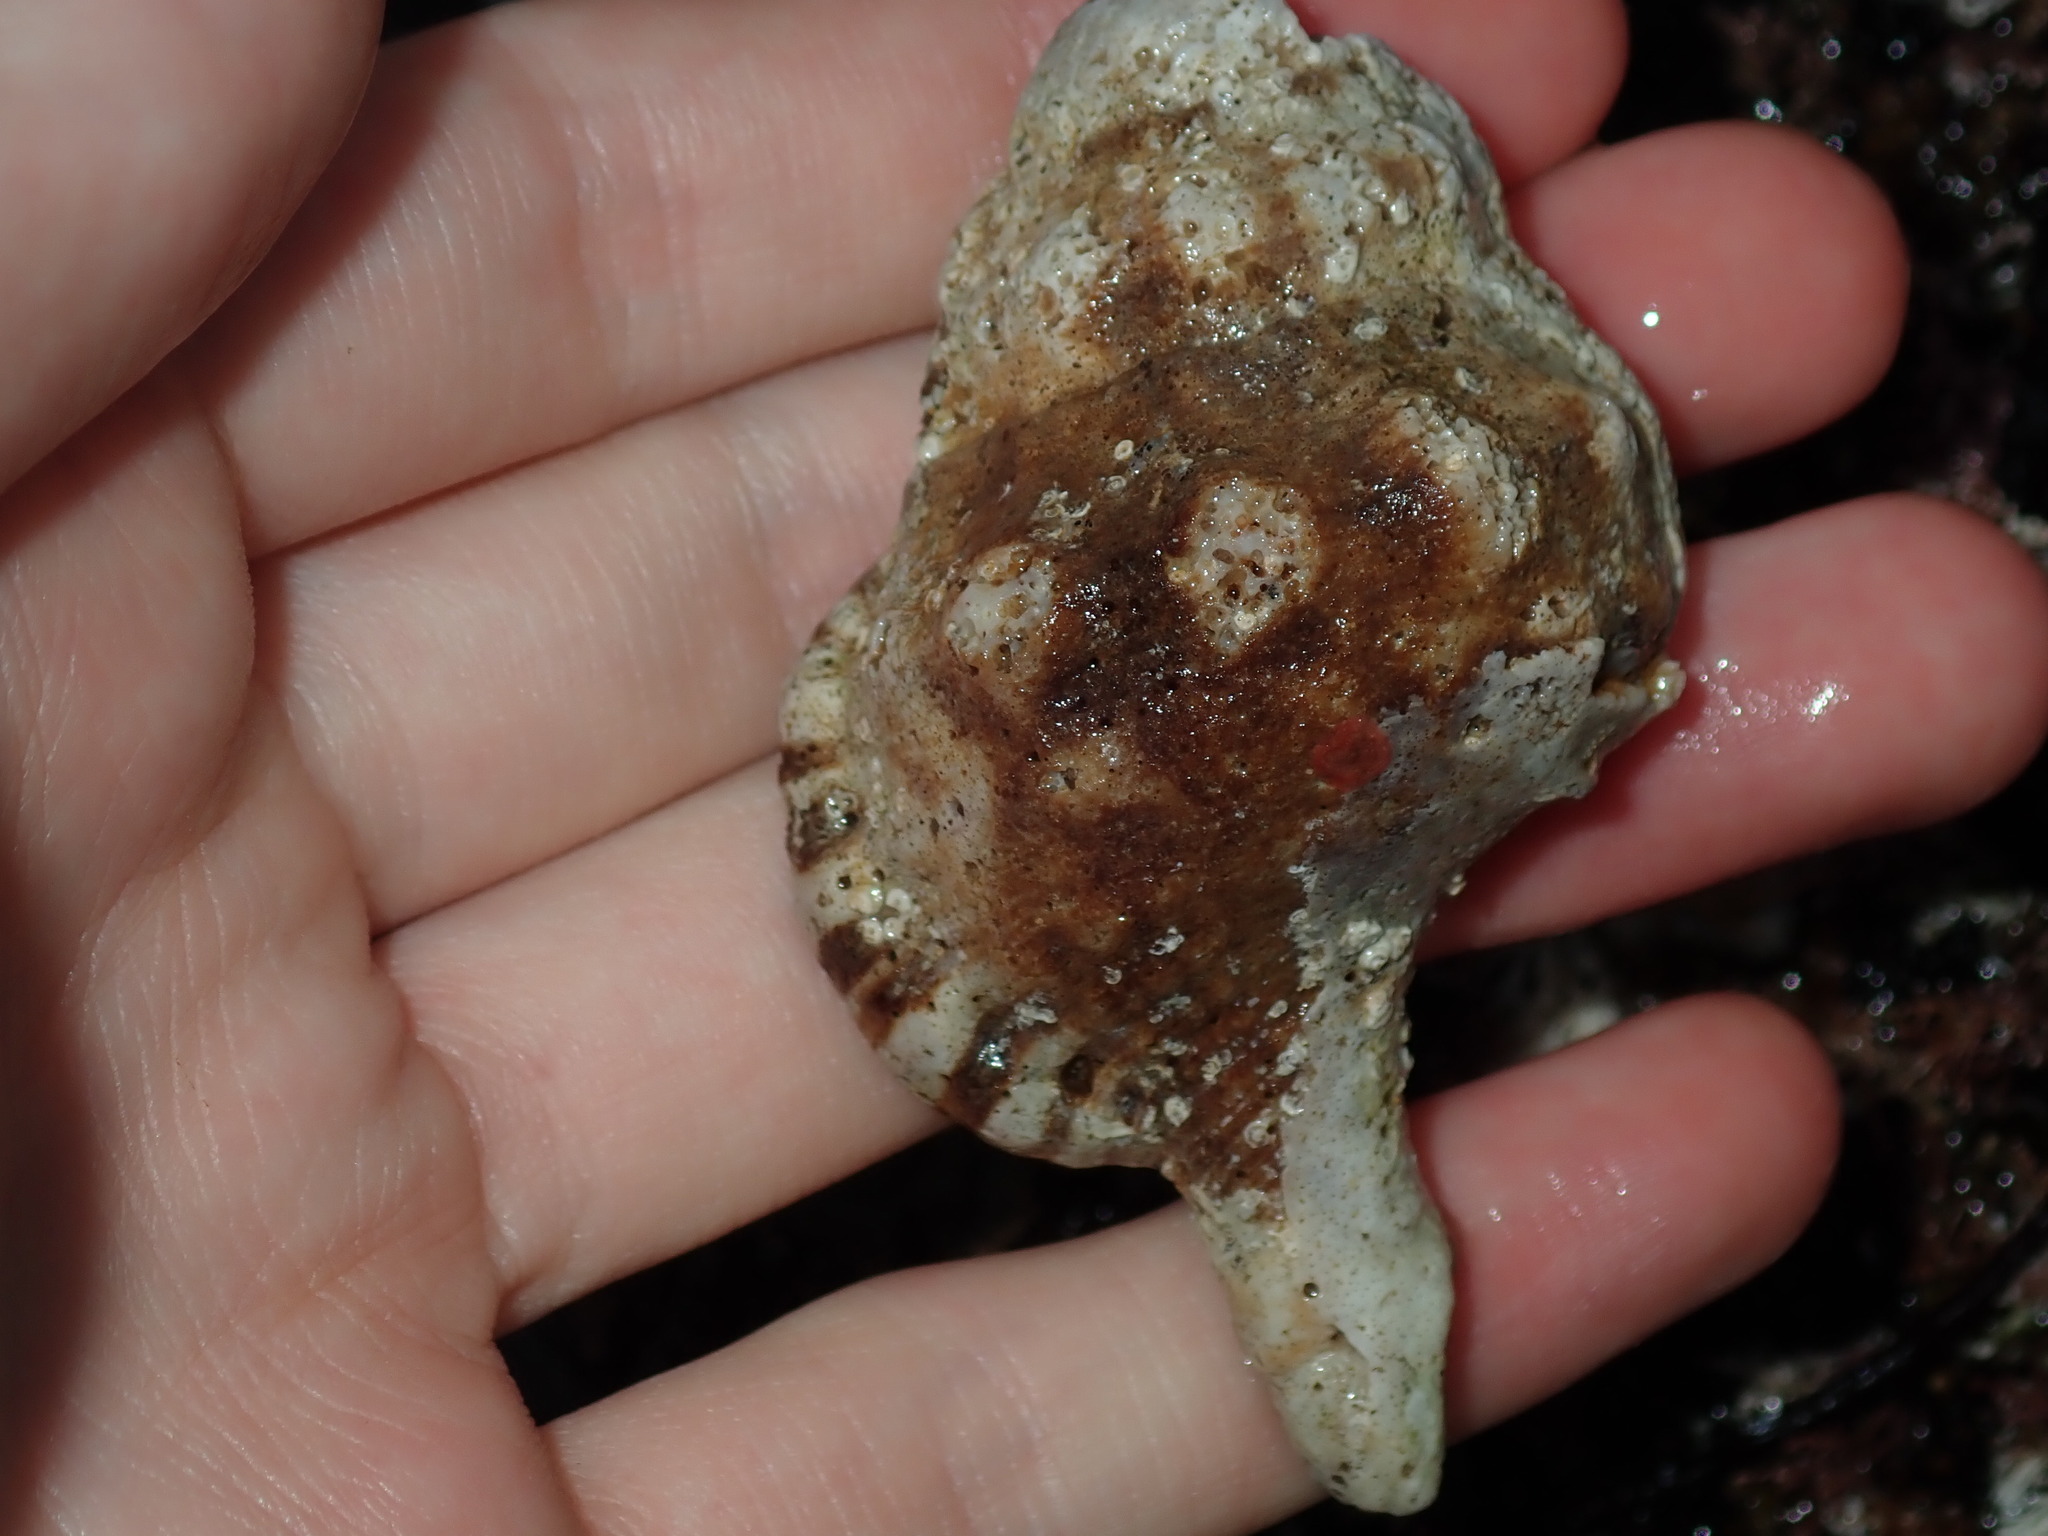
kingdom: Animalia
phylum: Mollusca
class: Gastropoda
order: Littorinimorpha
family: Ranellidae
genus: Ranella
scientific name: Ranella australasia
